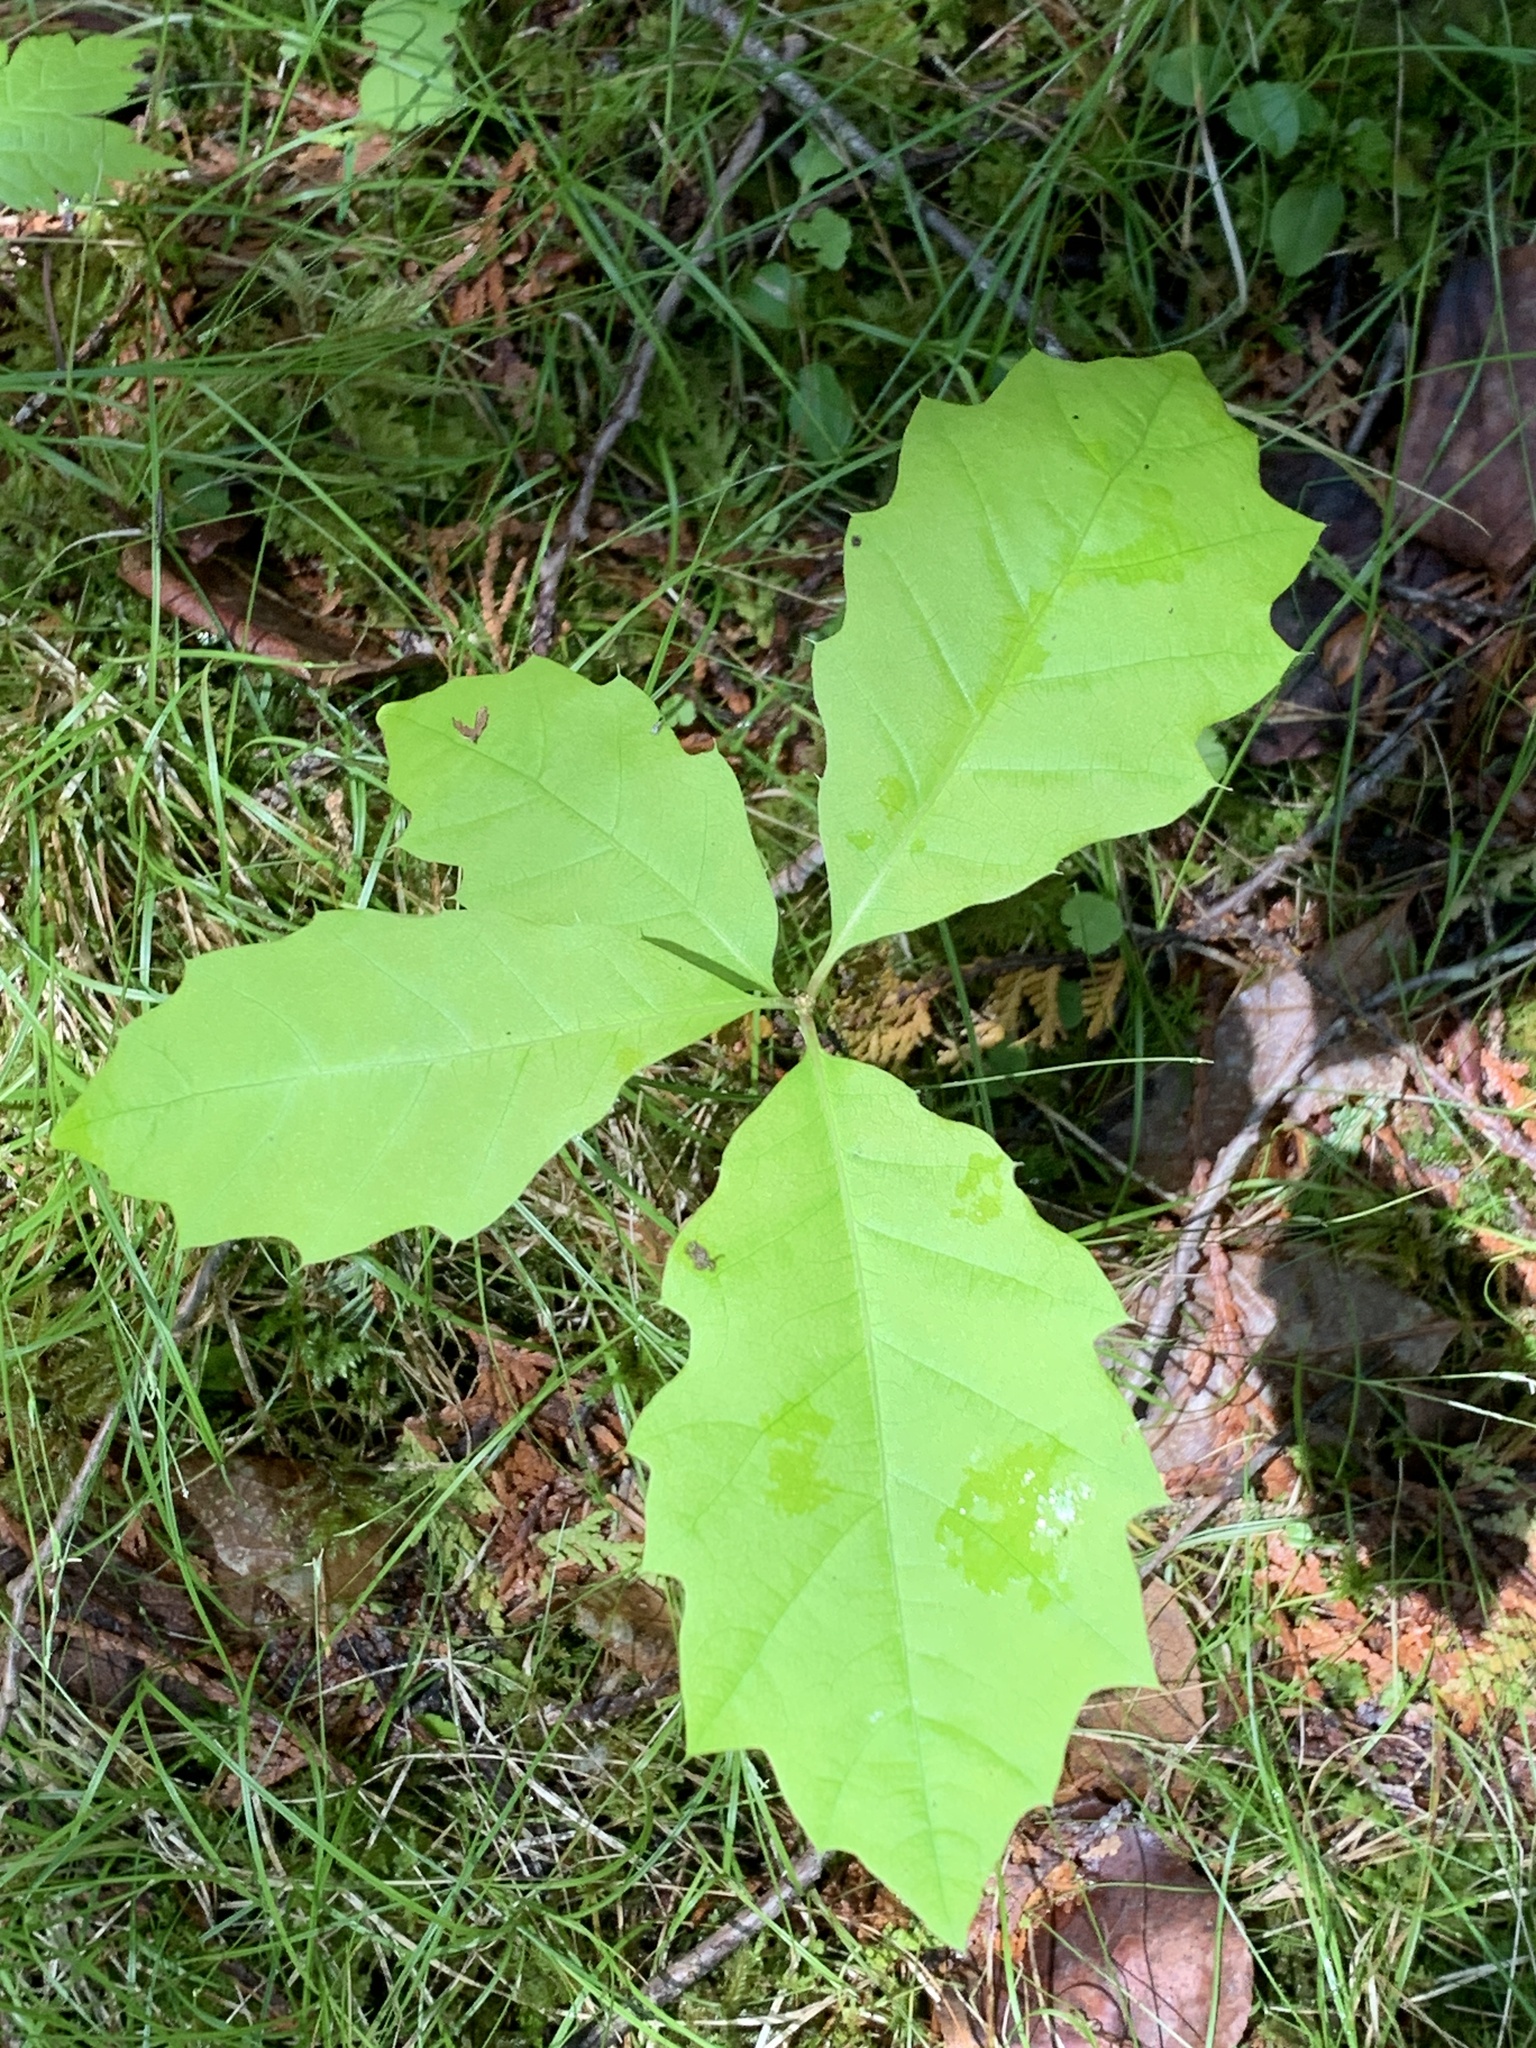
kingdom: Plantae
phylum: Tracheophyta
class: Magnoliopsida
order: Fagales
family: Fagaceae
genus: Quercus
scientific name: Quercus rubra
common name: Red oak
